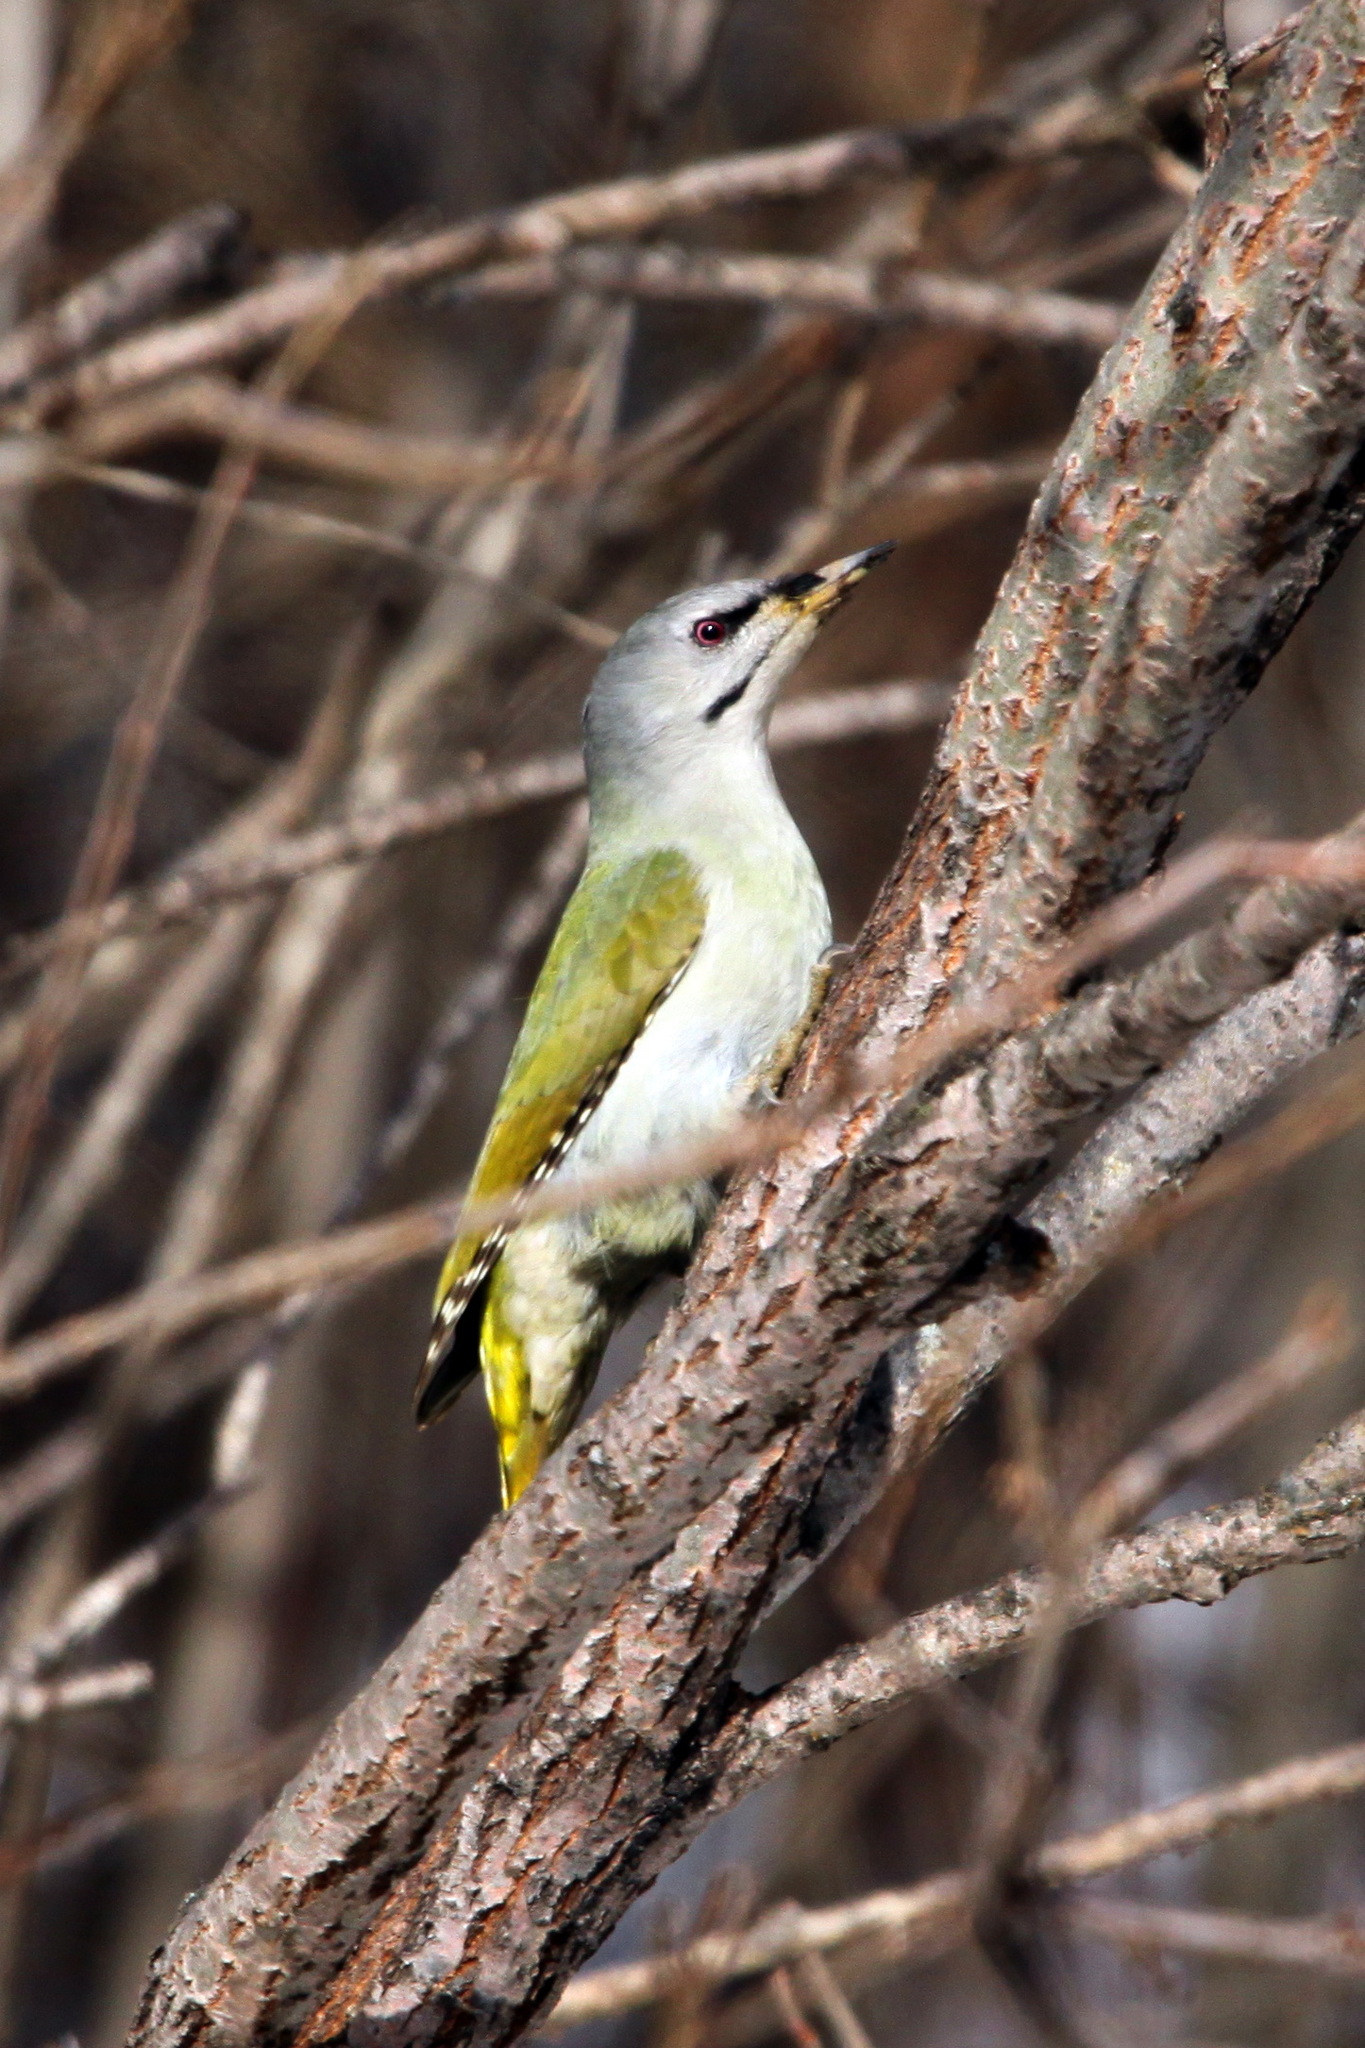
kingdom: Animalia
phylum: Chordata
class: Aves
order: Piciformes
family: Picidae
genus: Picus
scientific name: Picus canus
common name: Grey-headed woodpecker
